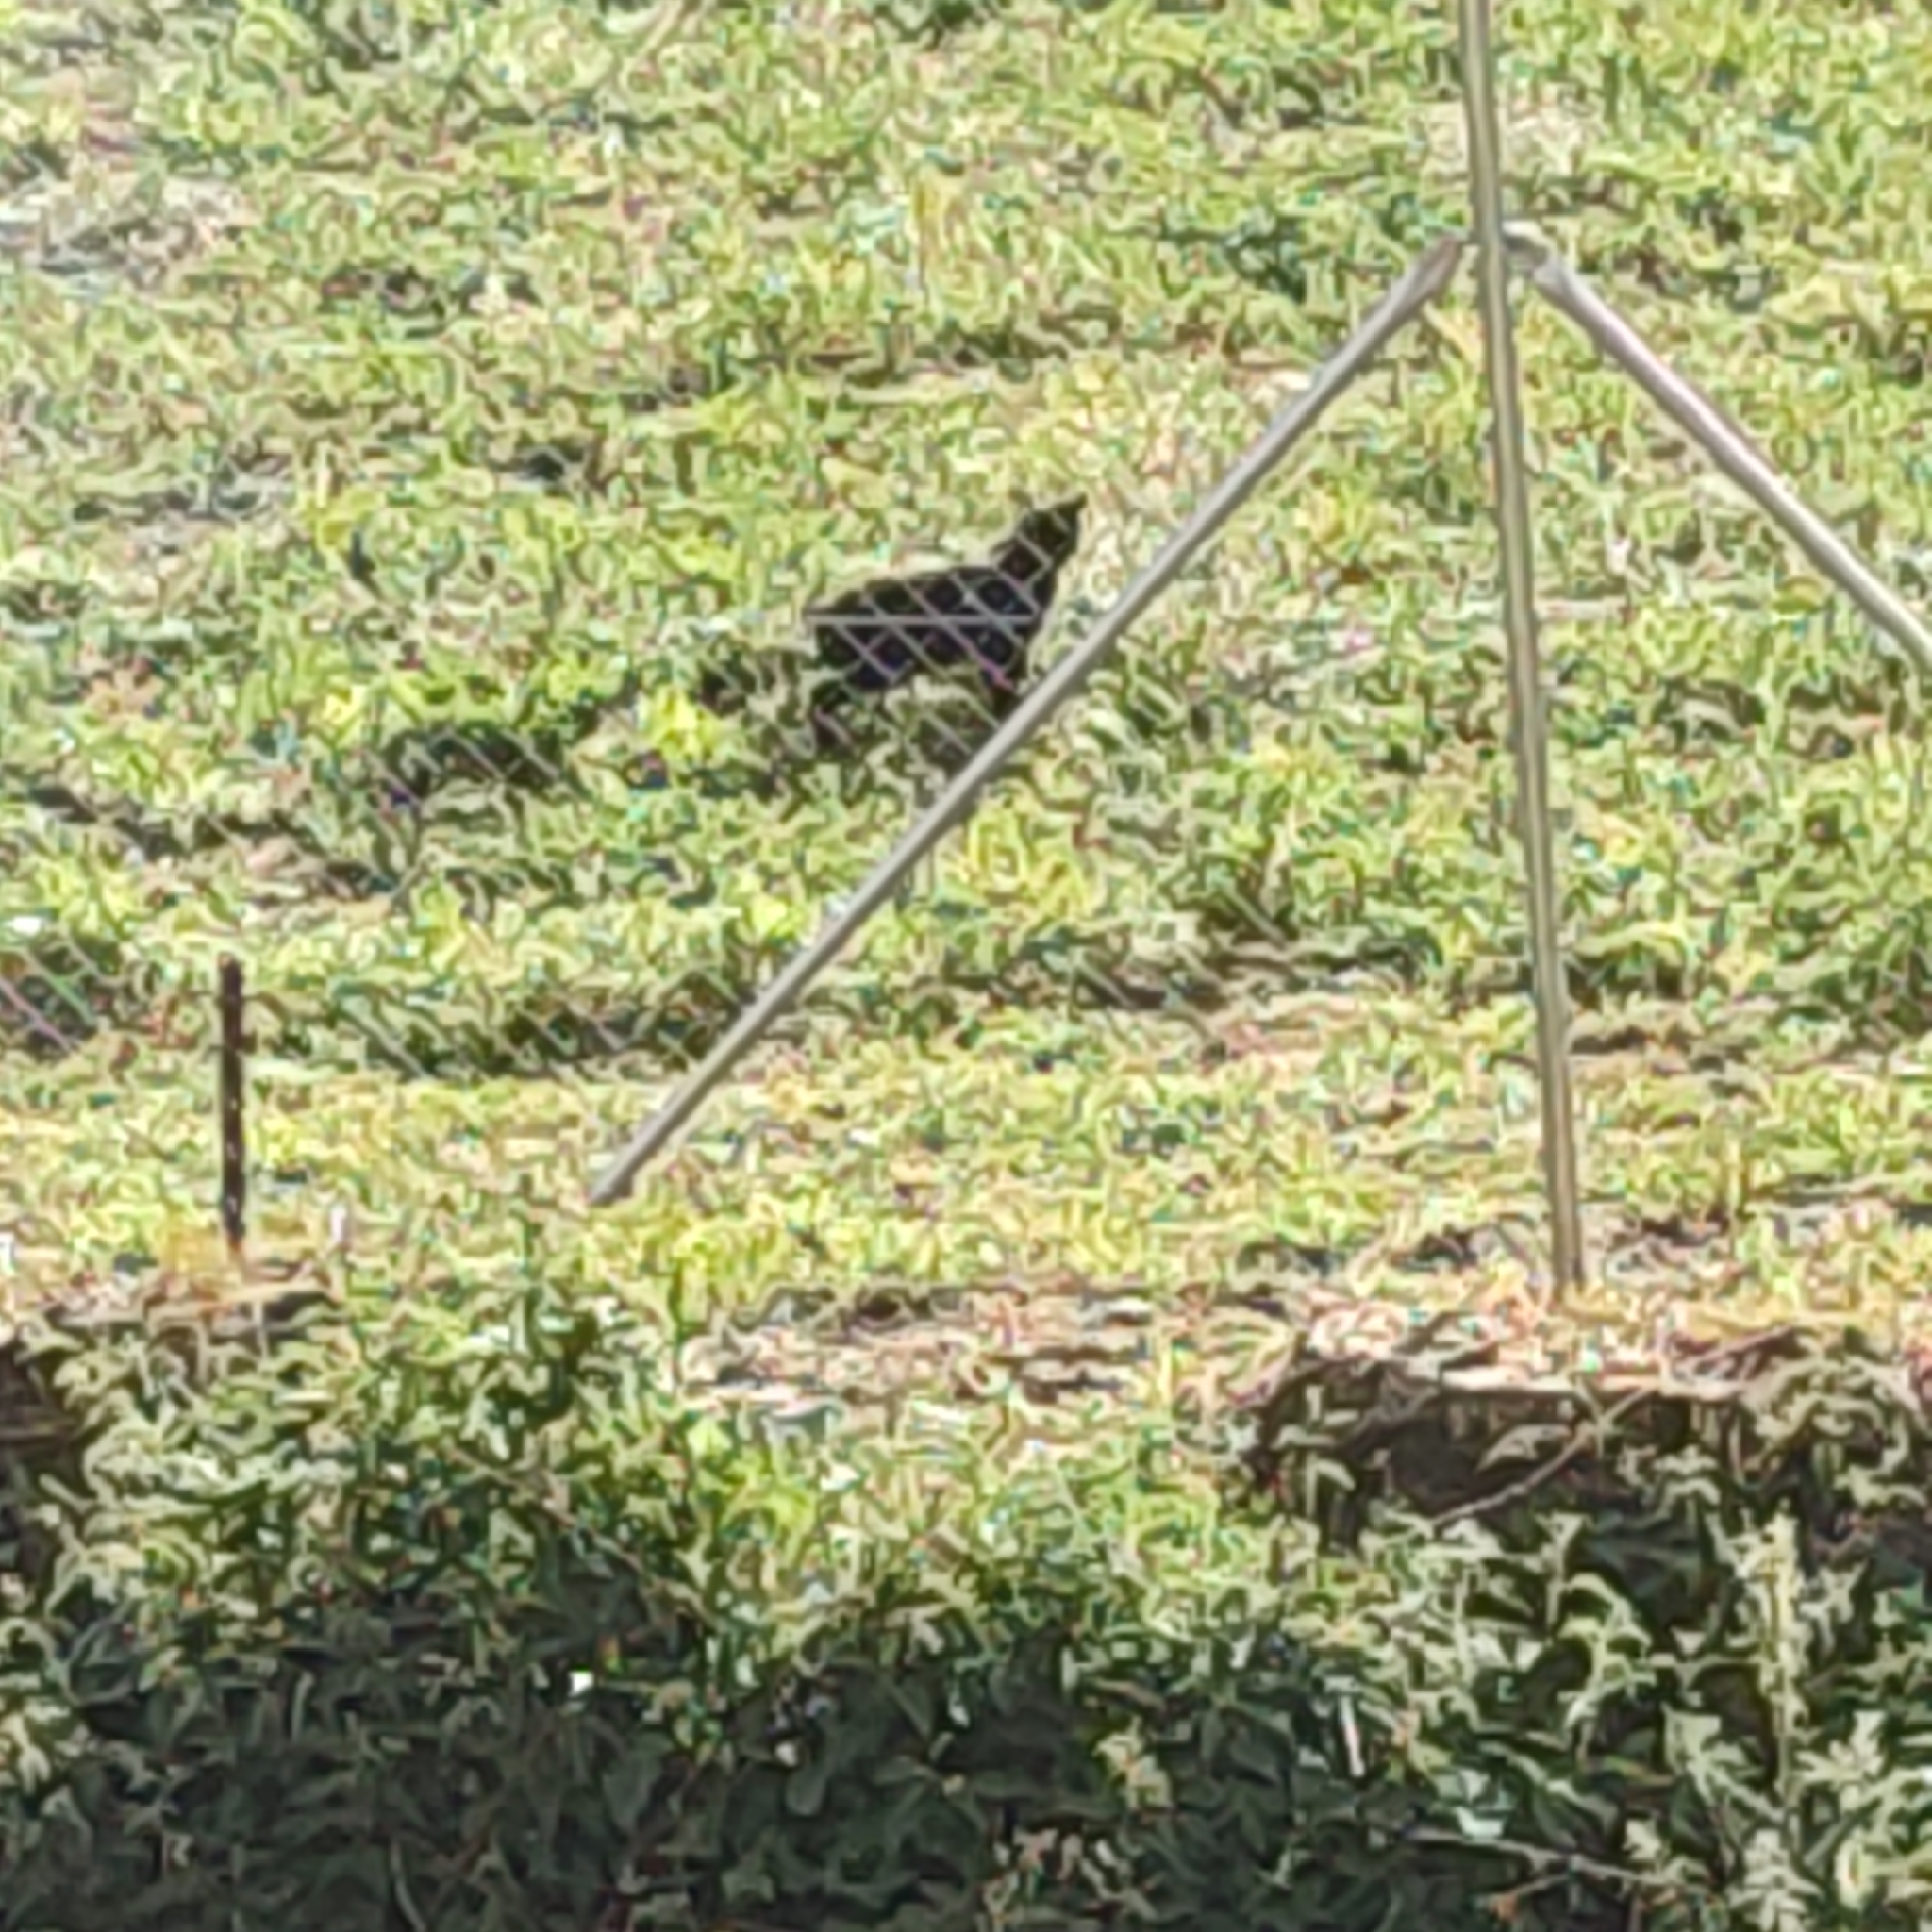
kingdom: Animalia
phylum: Chordata
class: Mammalia
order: Carnivora
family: Felidae
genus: Felis
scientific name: Felis catus
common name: Domestic cat
